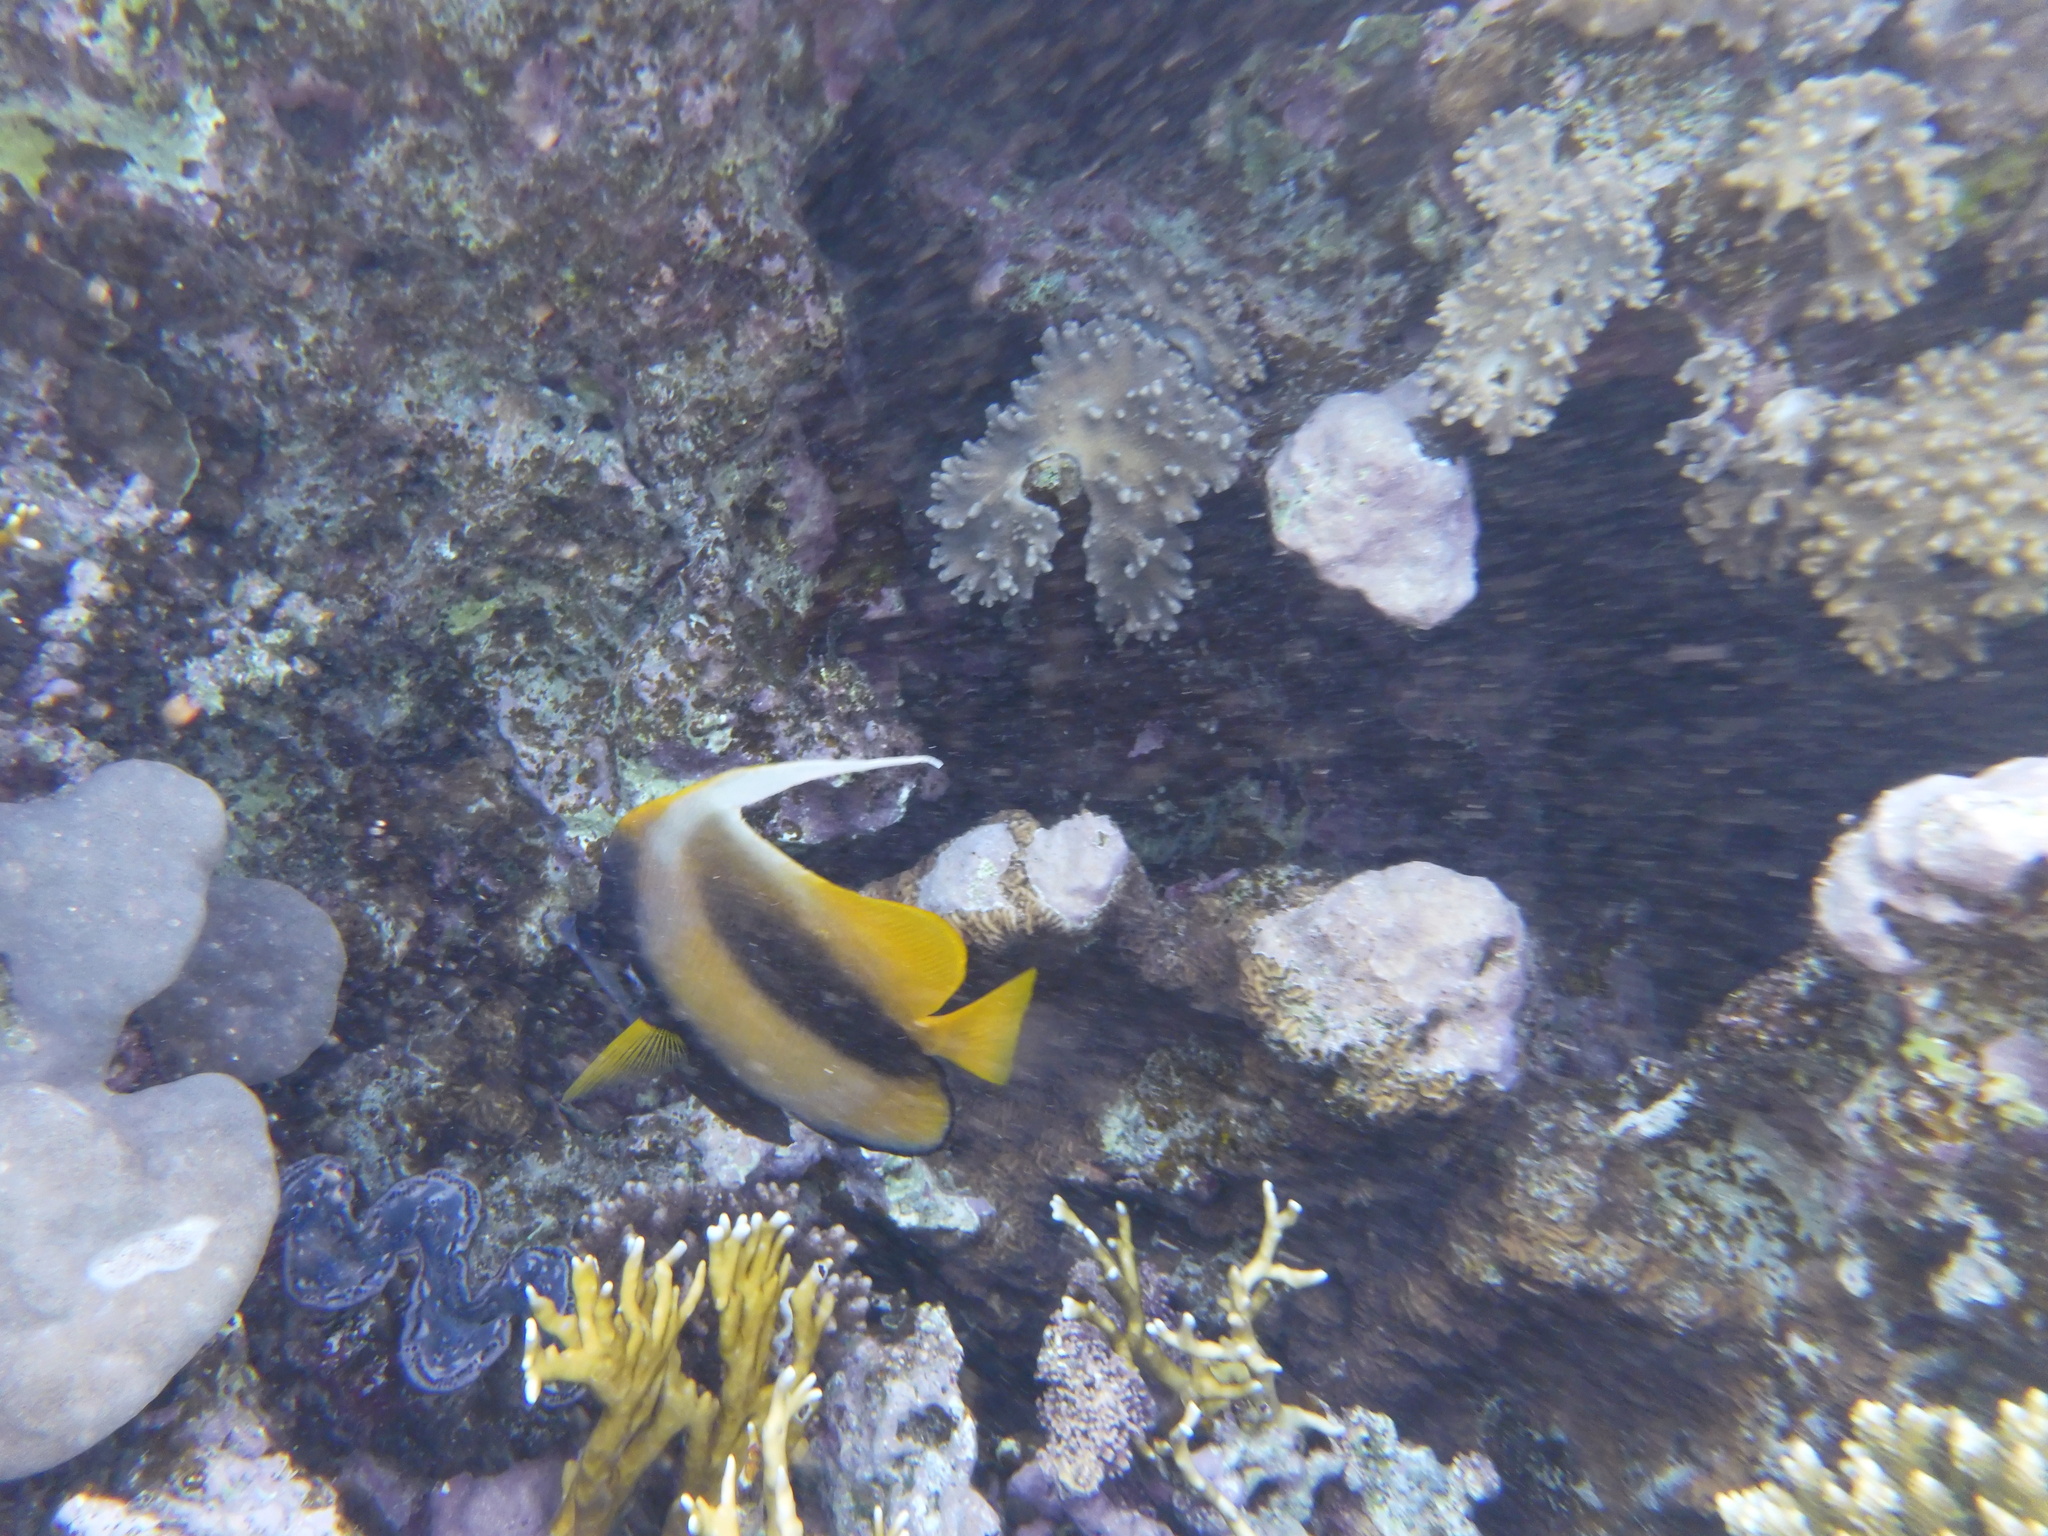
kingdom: Animalia
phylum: Chordata
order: Perciformes
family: Chaetodontidae
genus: Heniochus
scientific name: Heniochus intermedius
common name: Red sea bannerfish
